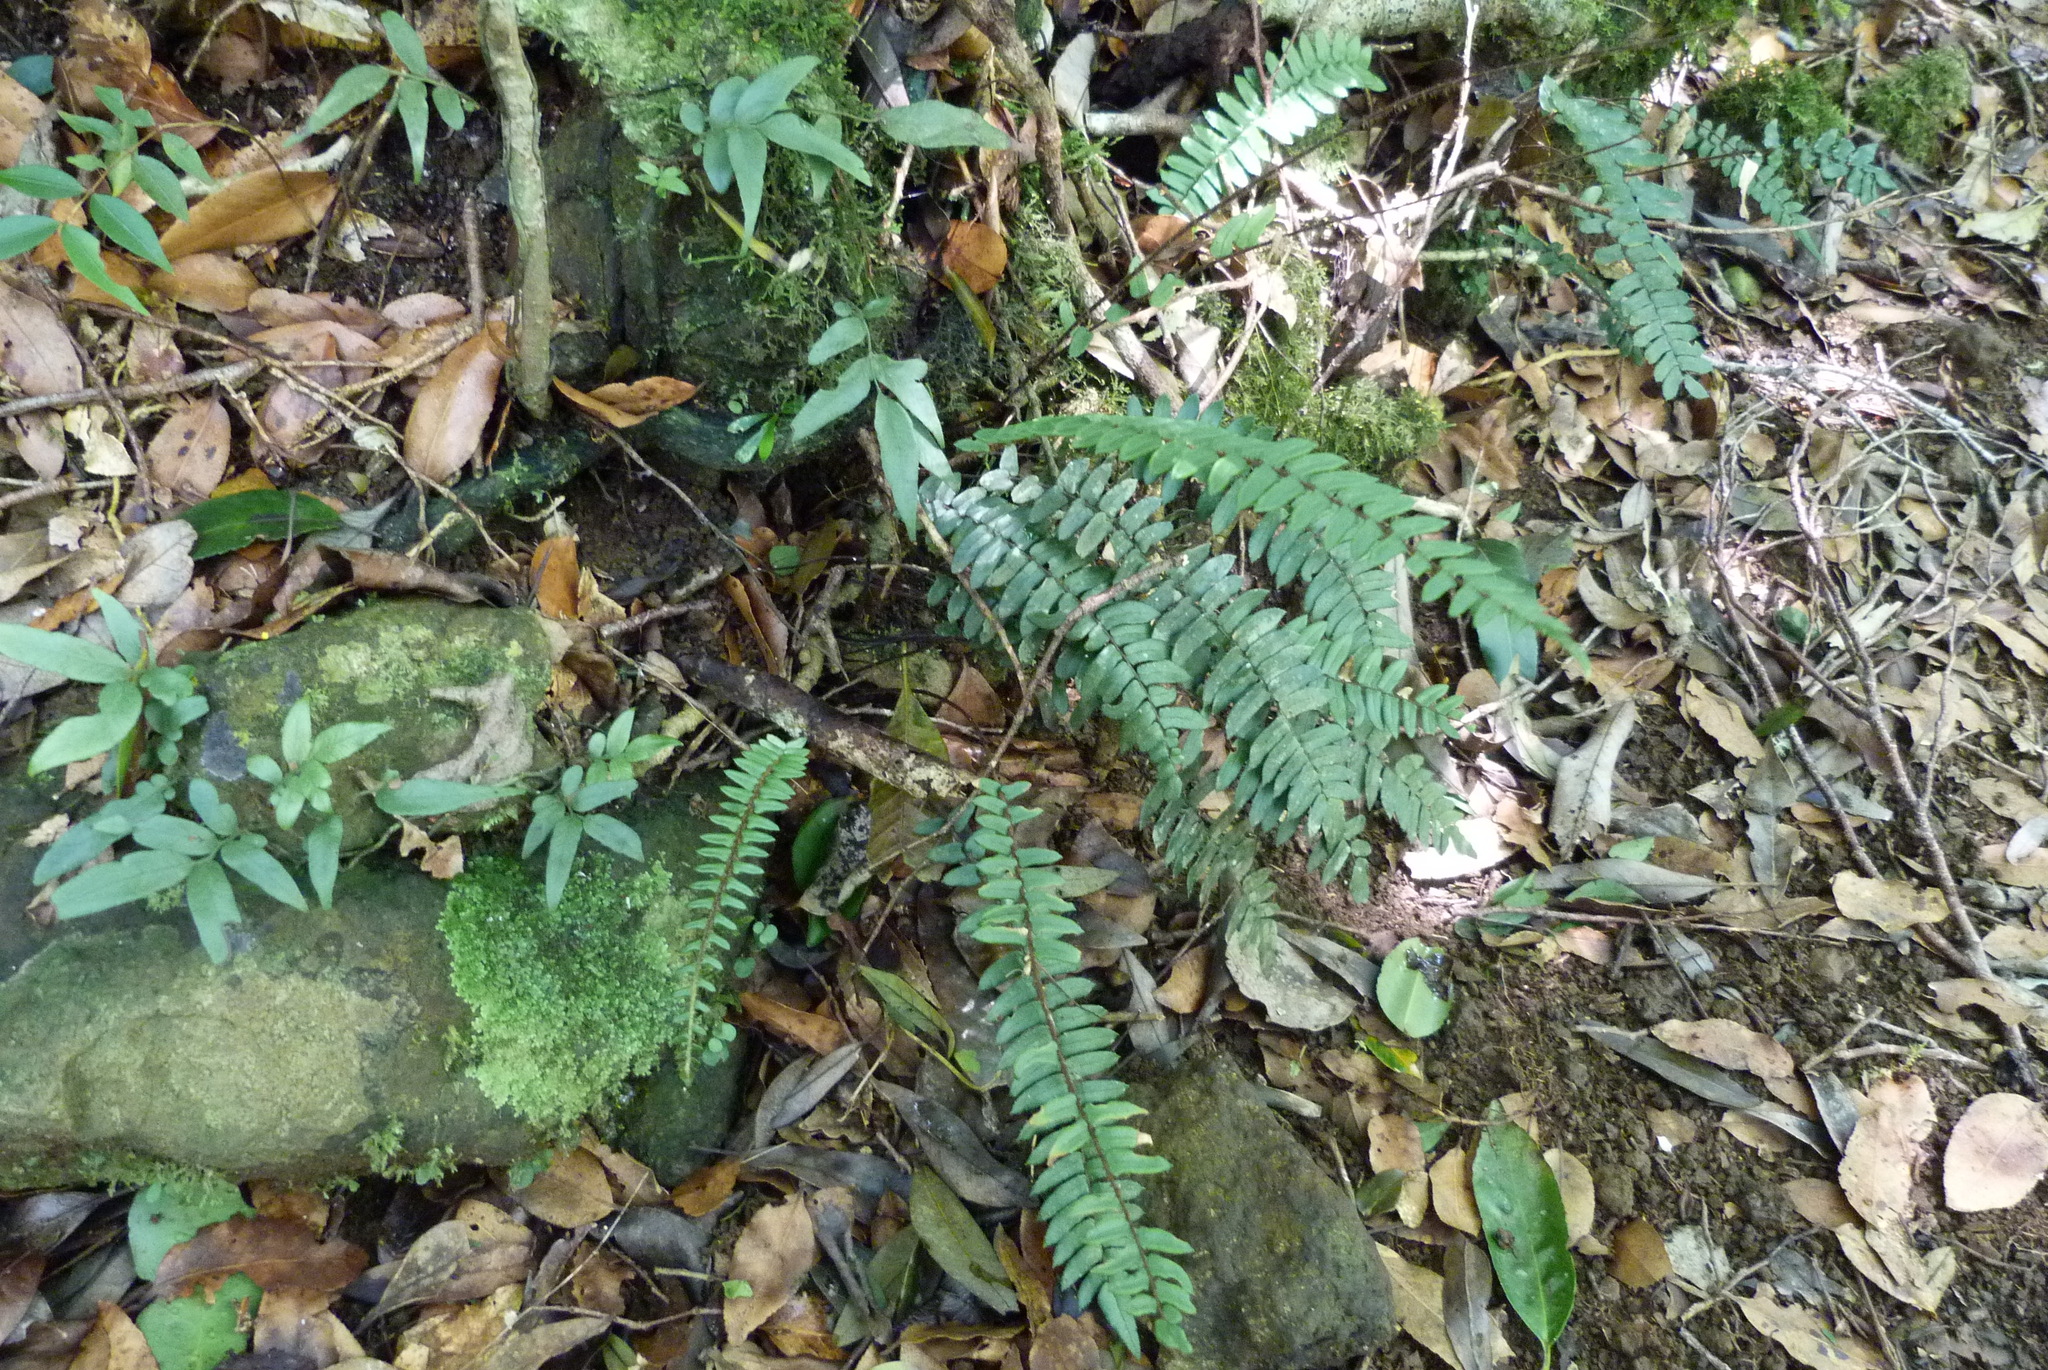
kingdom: Plantae
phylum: Tracheophyta
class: Polypodiopsida
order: Polypodiales
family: Pteridaceae
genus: Pellaea
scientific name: Pellaea falcata
